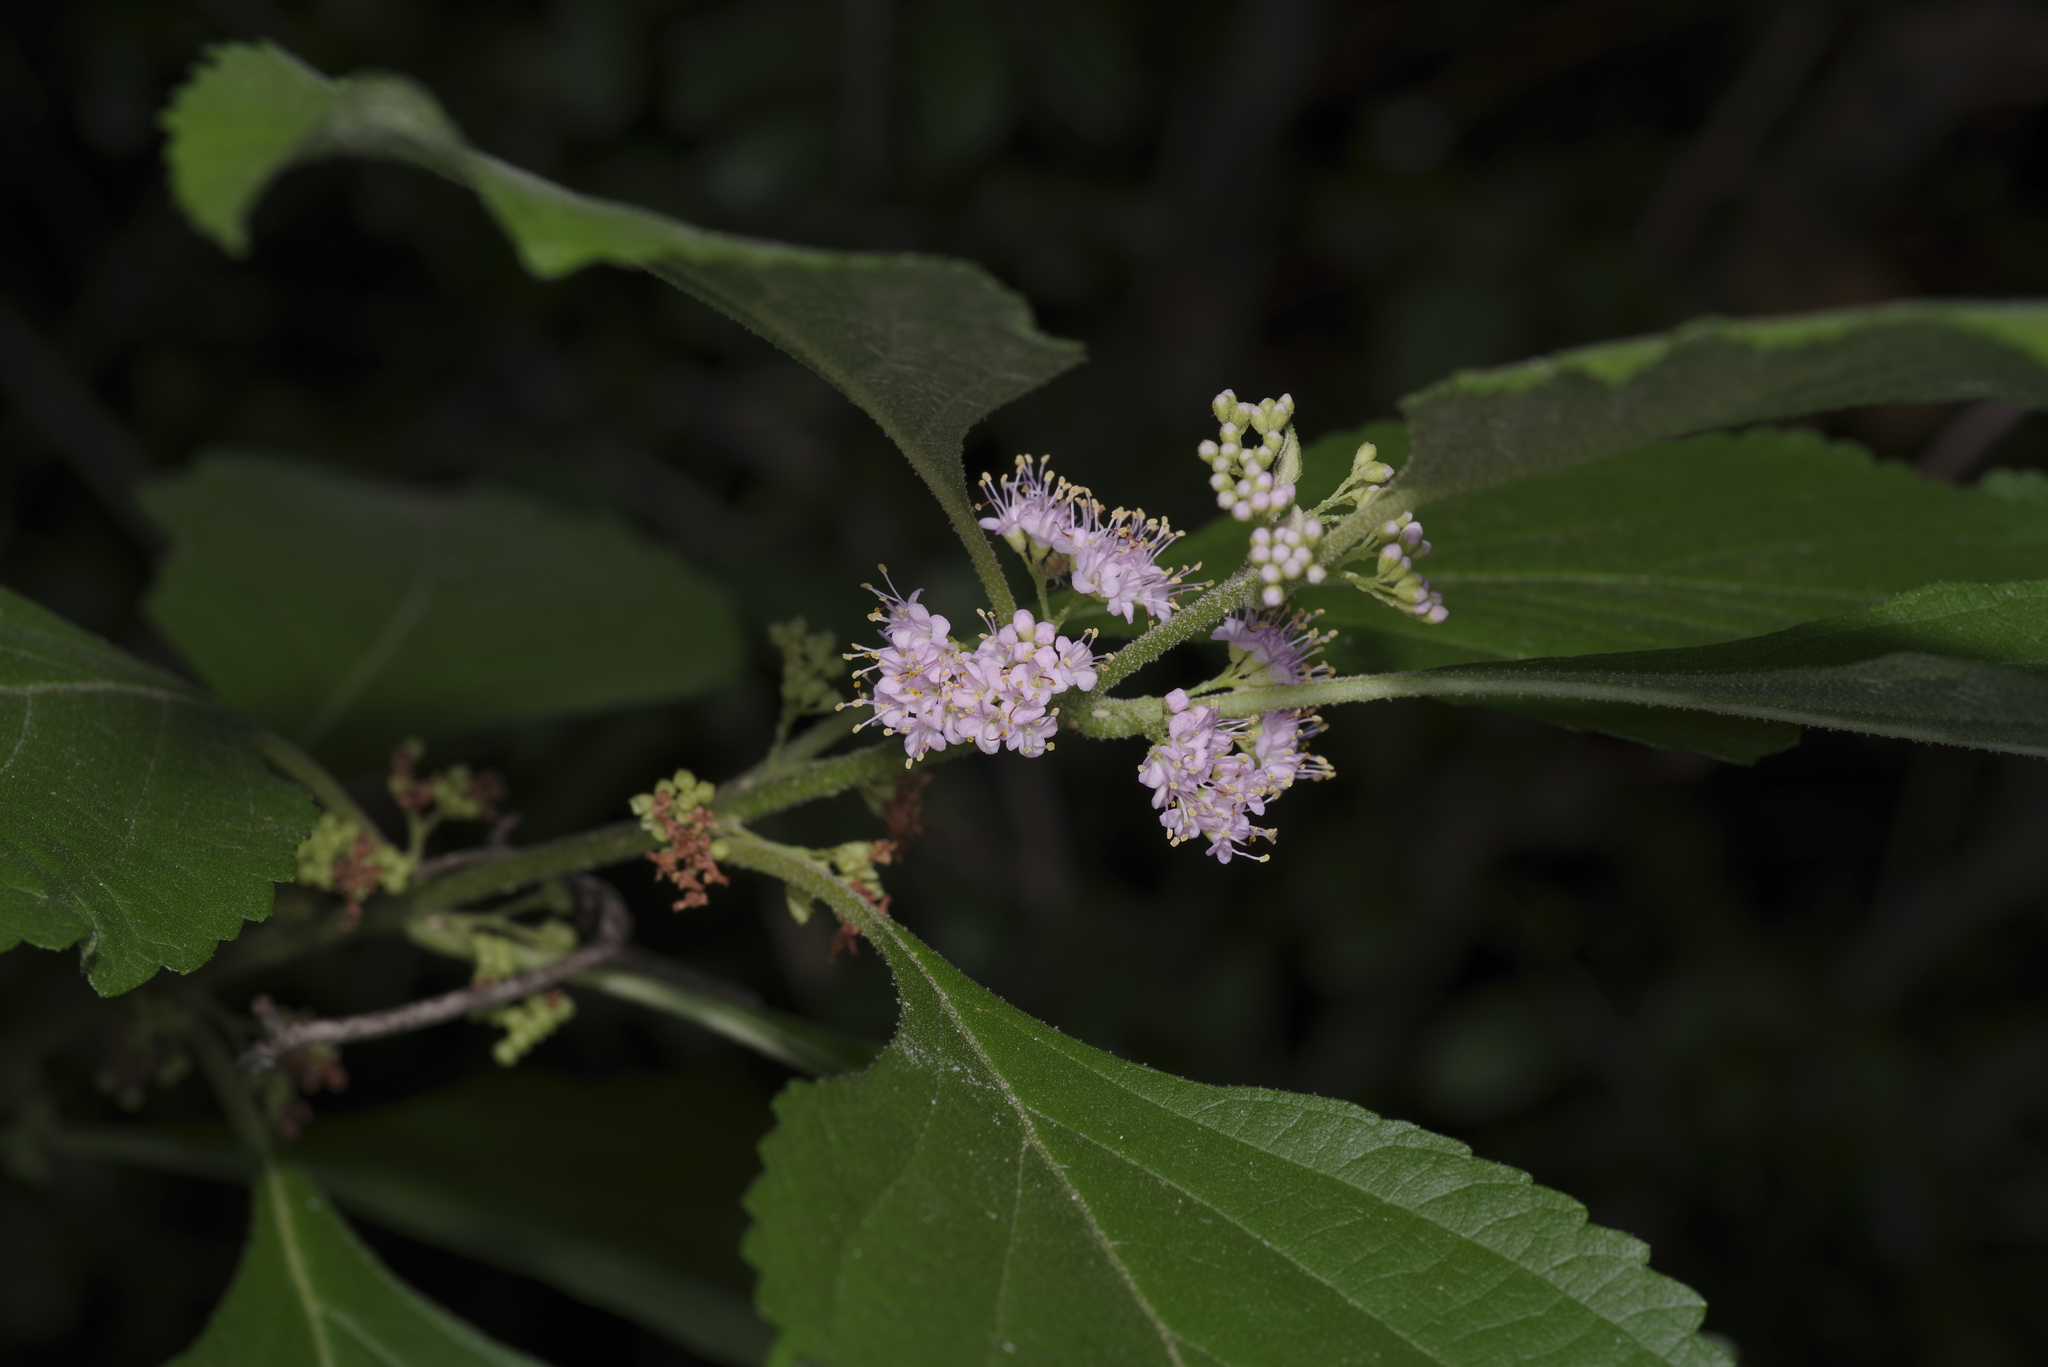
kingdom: Plantae
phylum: Tracheophyta
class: Magnoliopsida
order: Lamiales
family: Lamiaceae
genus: Callicarpa
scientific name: Callicarpa americana
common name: American beautyberry
